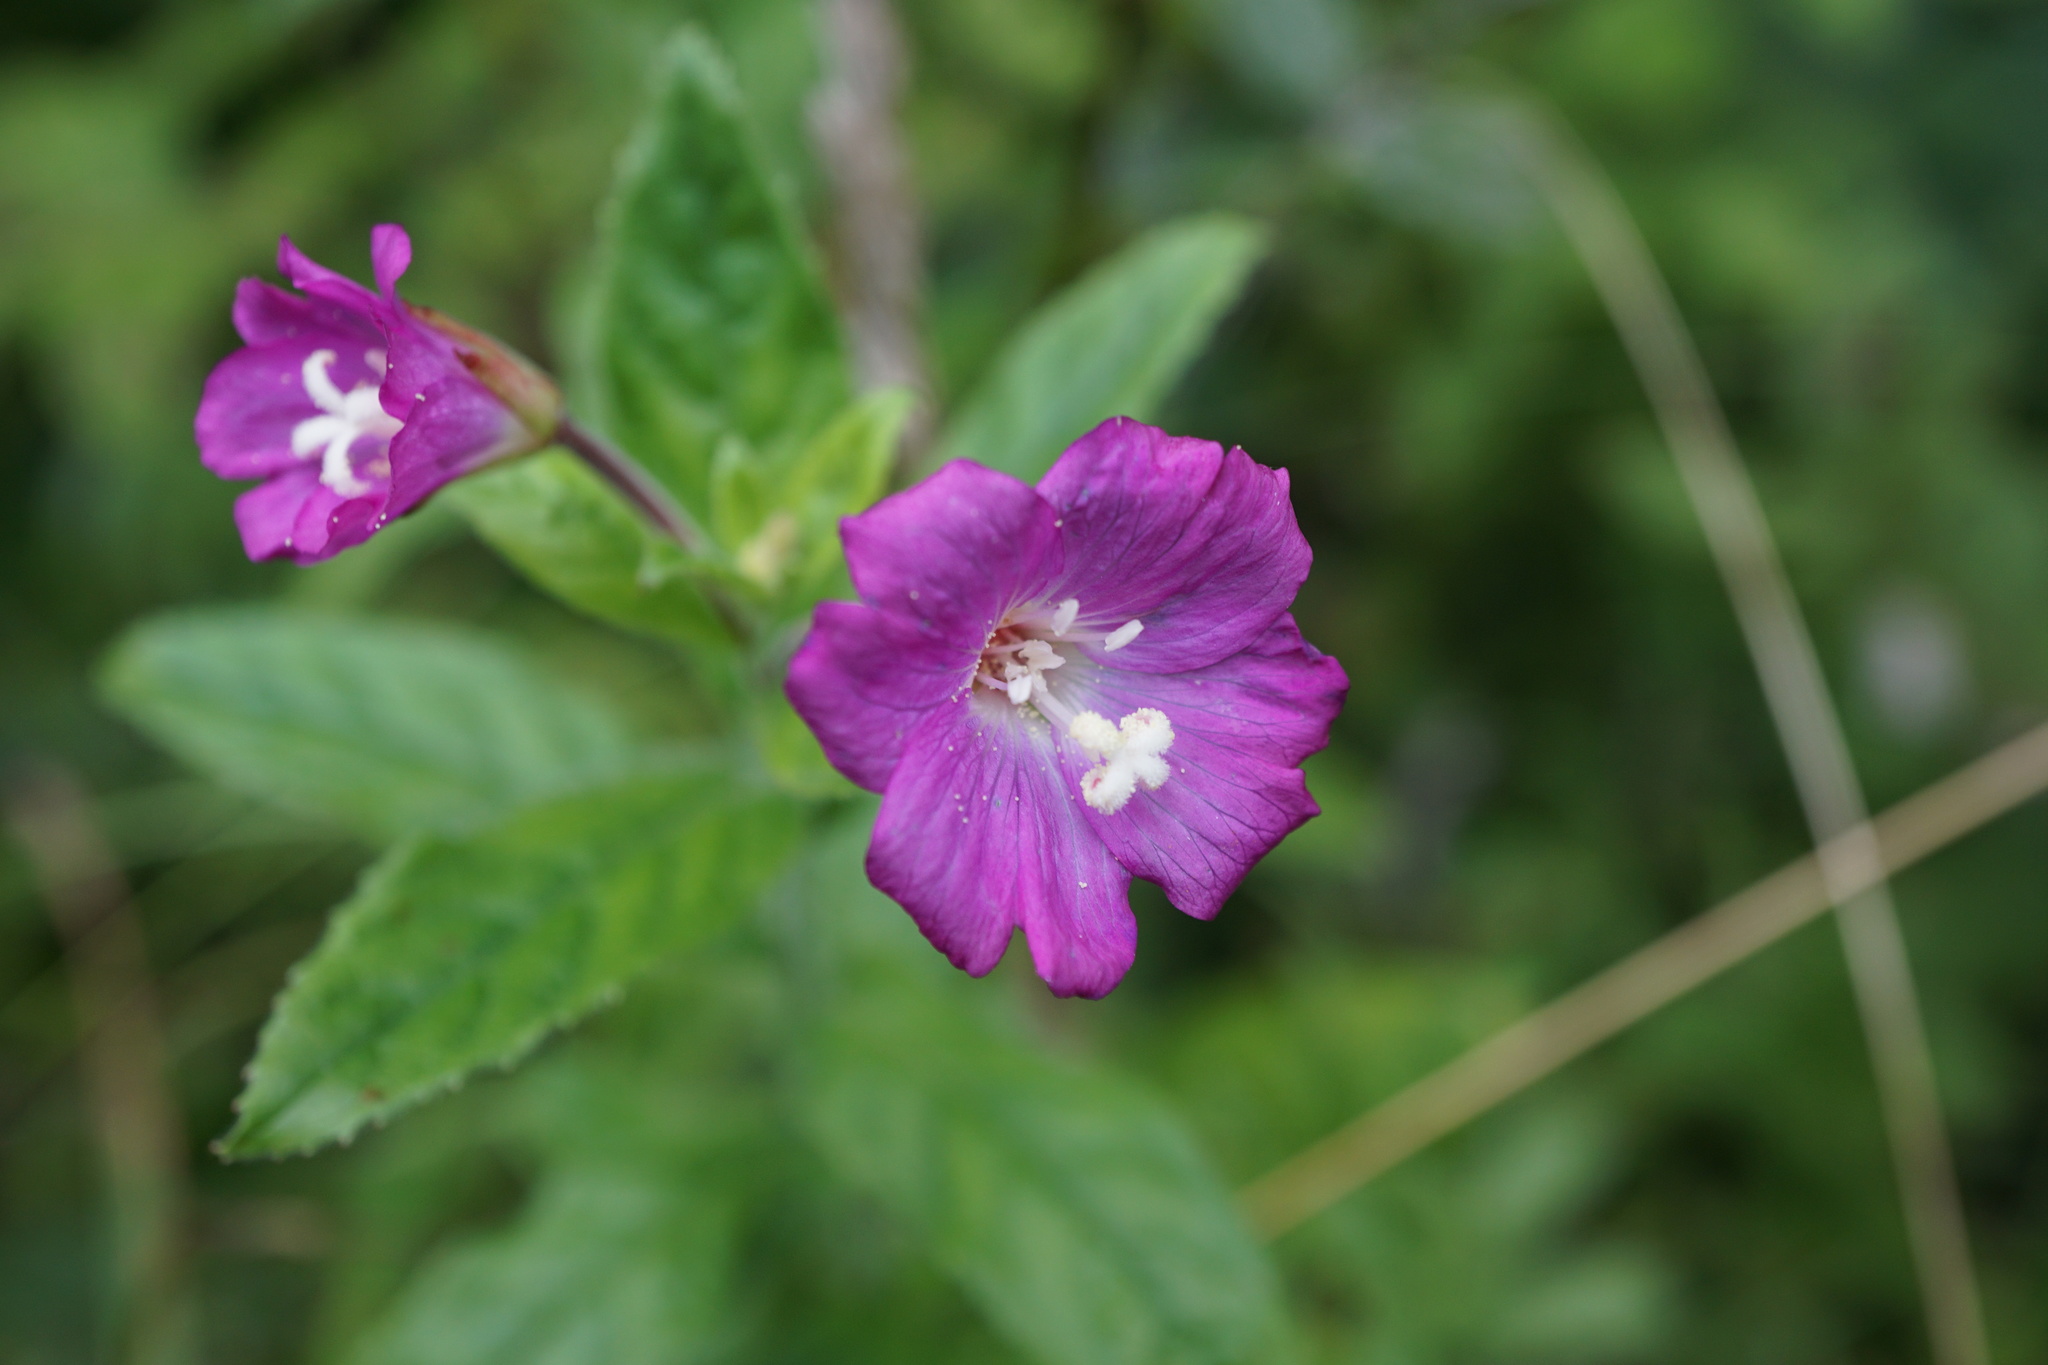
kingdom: Plantae
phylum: Tracheophyta
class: Magnoliopsida
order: Myrtales
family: Onagraceae
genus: Epilobium
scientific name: Epilobium hirsutum
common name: Great willowherb
